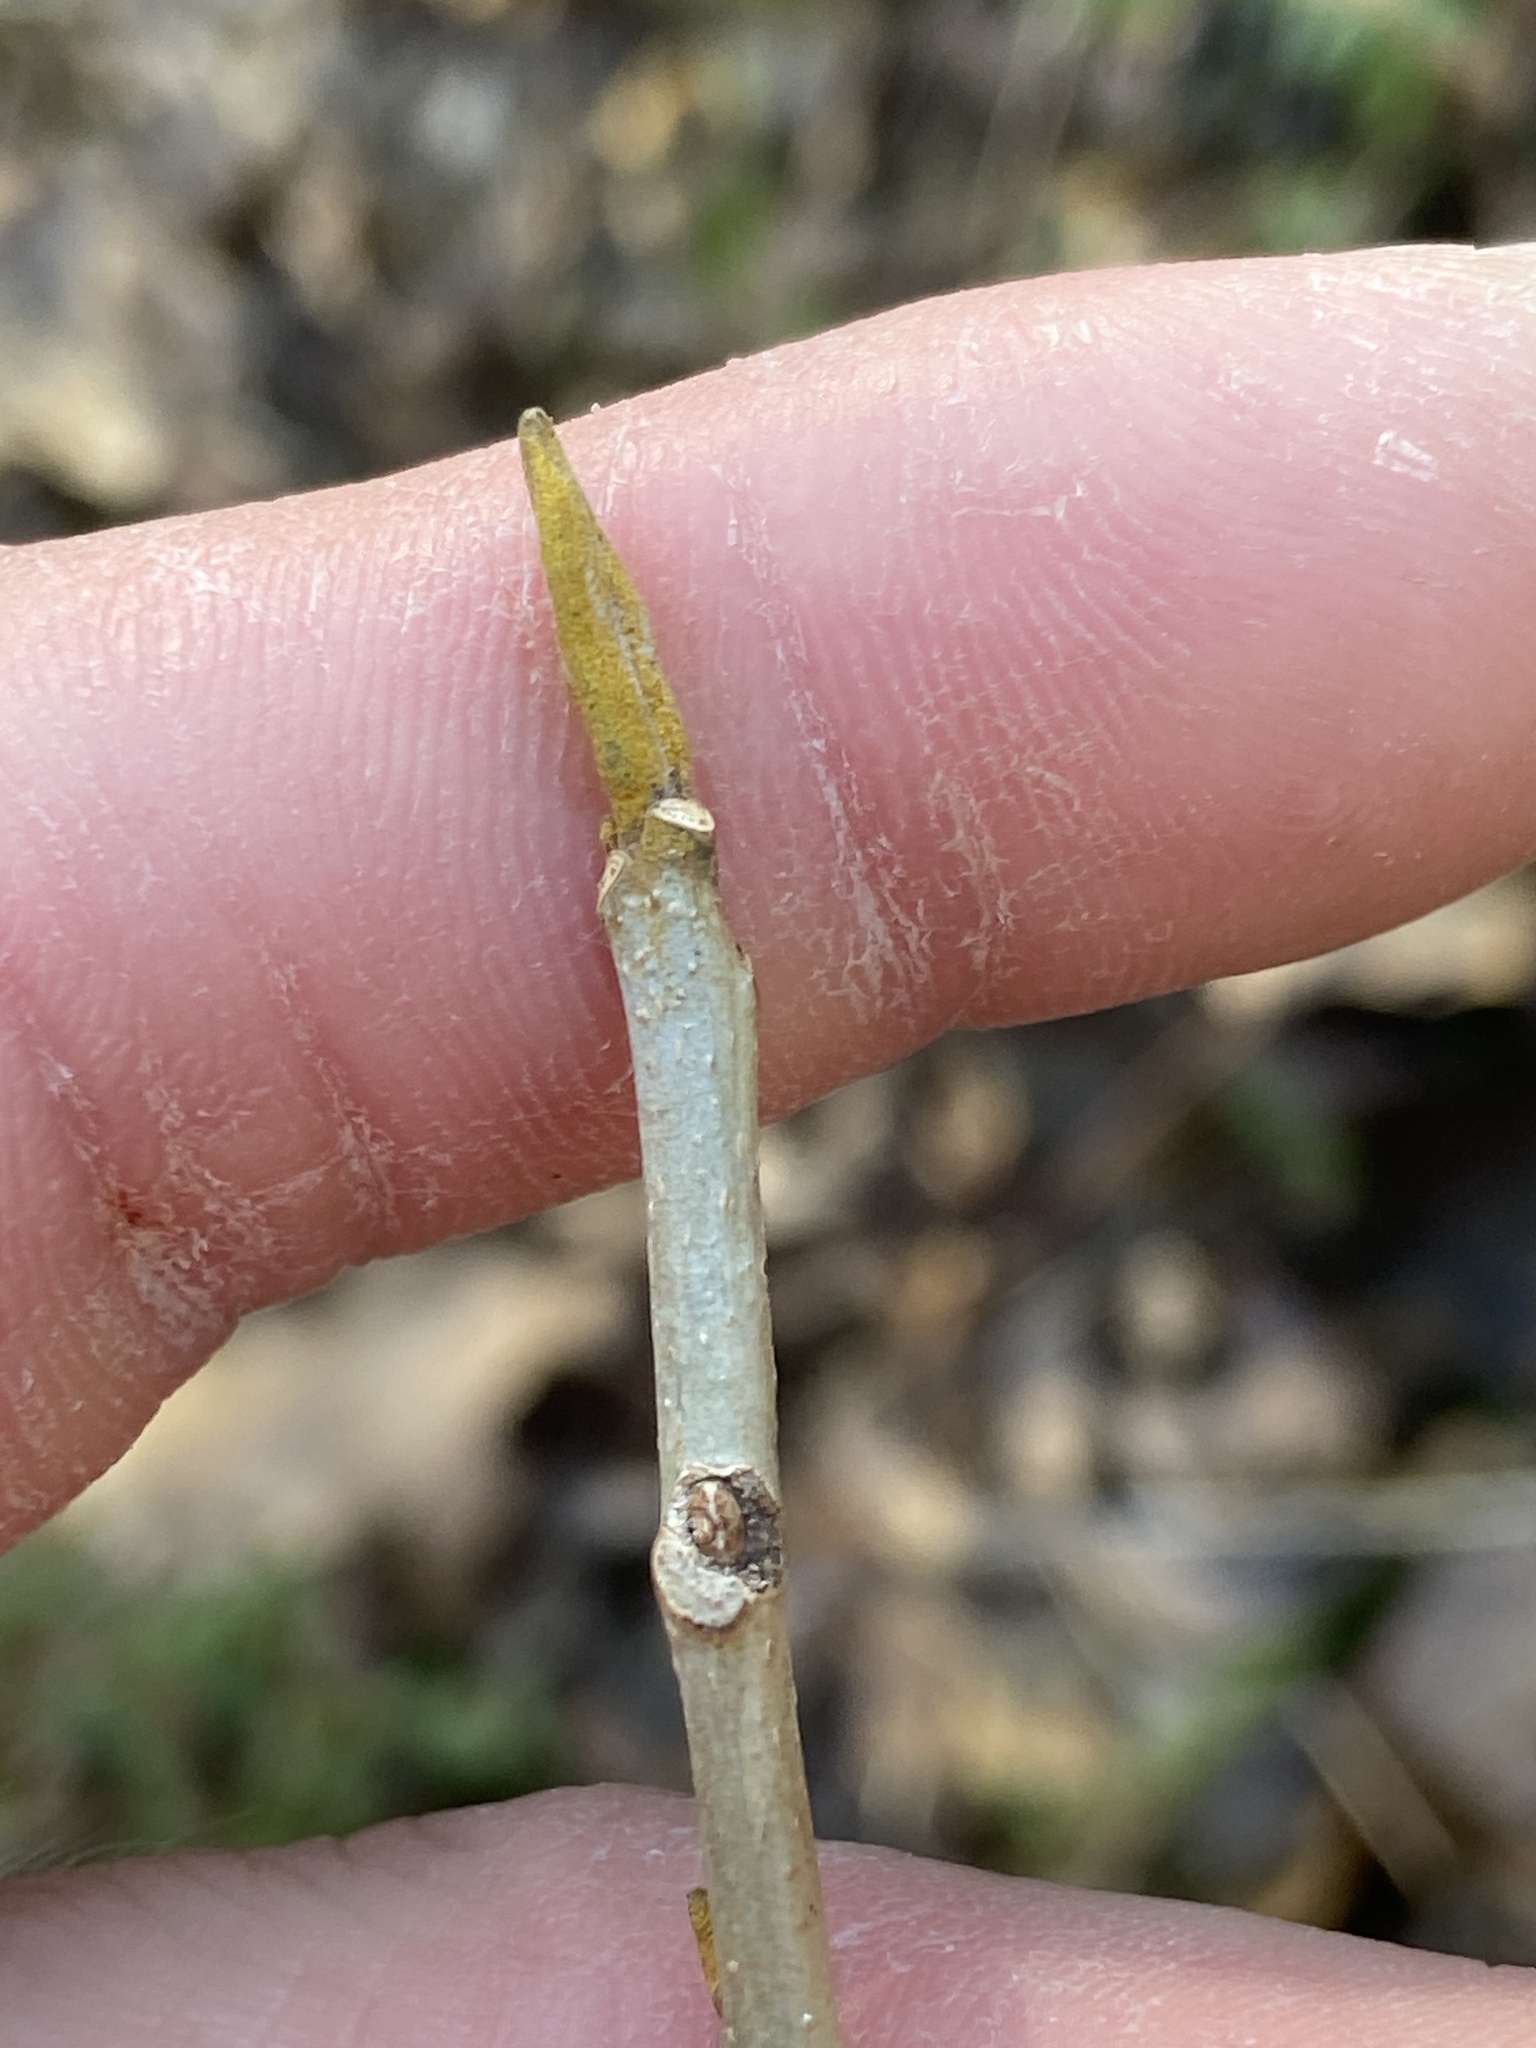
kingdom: Plantae
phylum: Tracheophyta
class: Magnoliopsida
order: Fagales
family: Juglandaceae
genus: Carya
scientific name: Carya cordiformis
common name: Bitternut hickory
